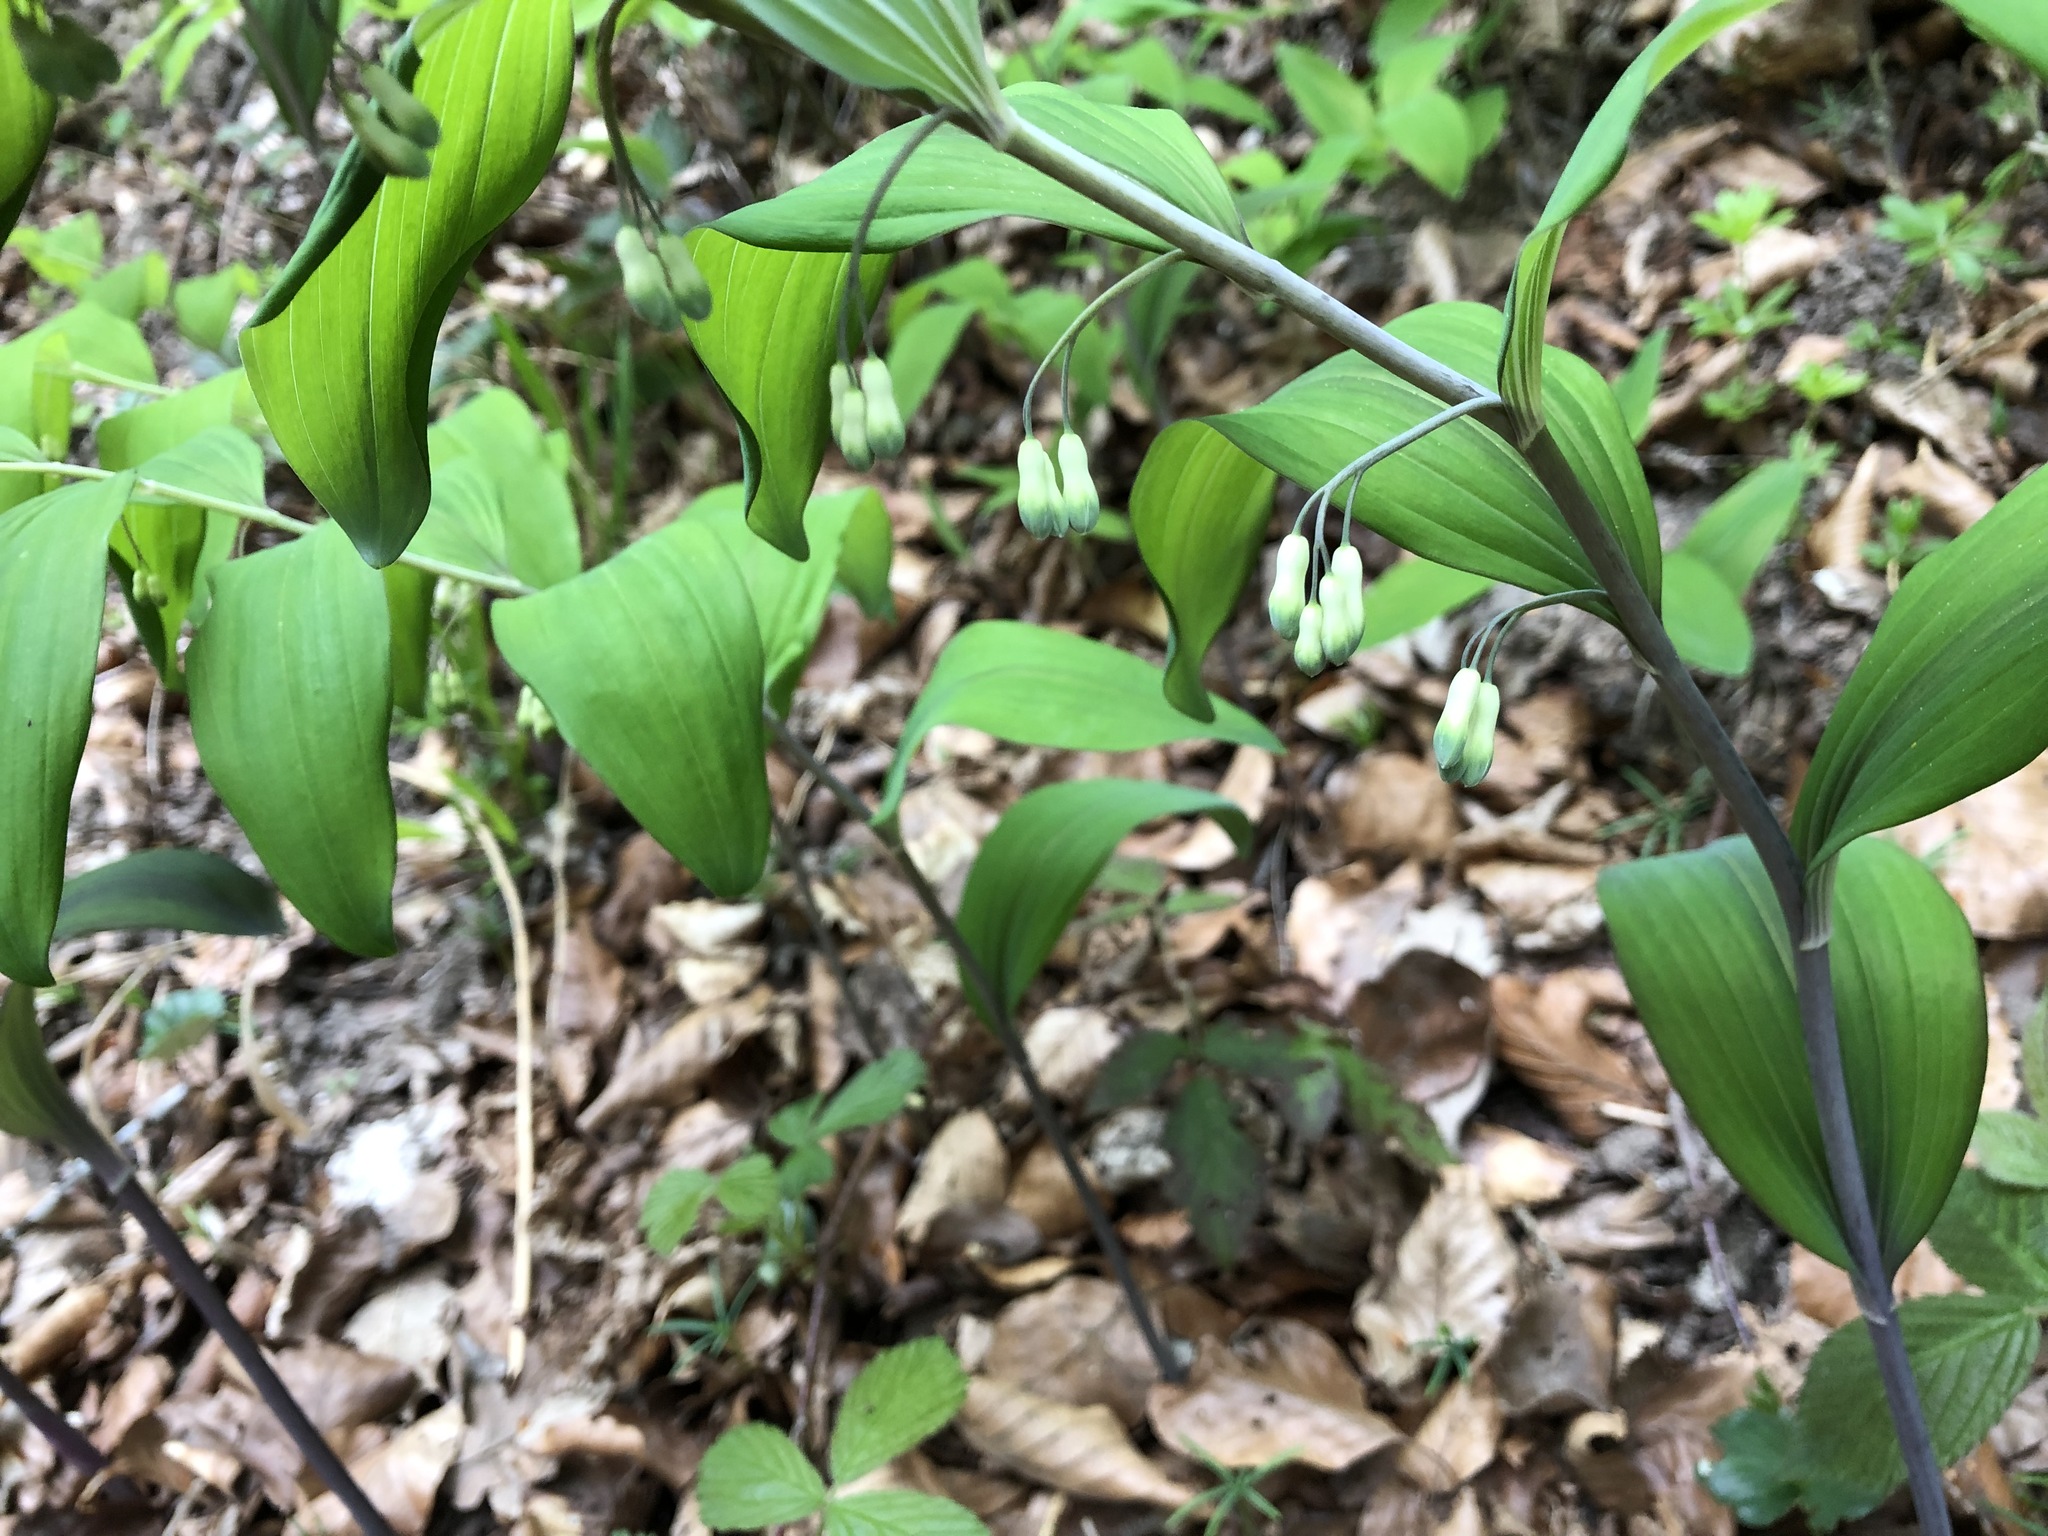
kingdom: Plantae
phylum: Tracheophyta
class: Liliopsida
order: Asparagales
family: Asparagaceae
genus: Polygonatum
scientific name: Polygonatum multiflorum
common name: Solomon's-seal
